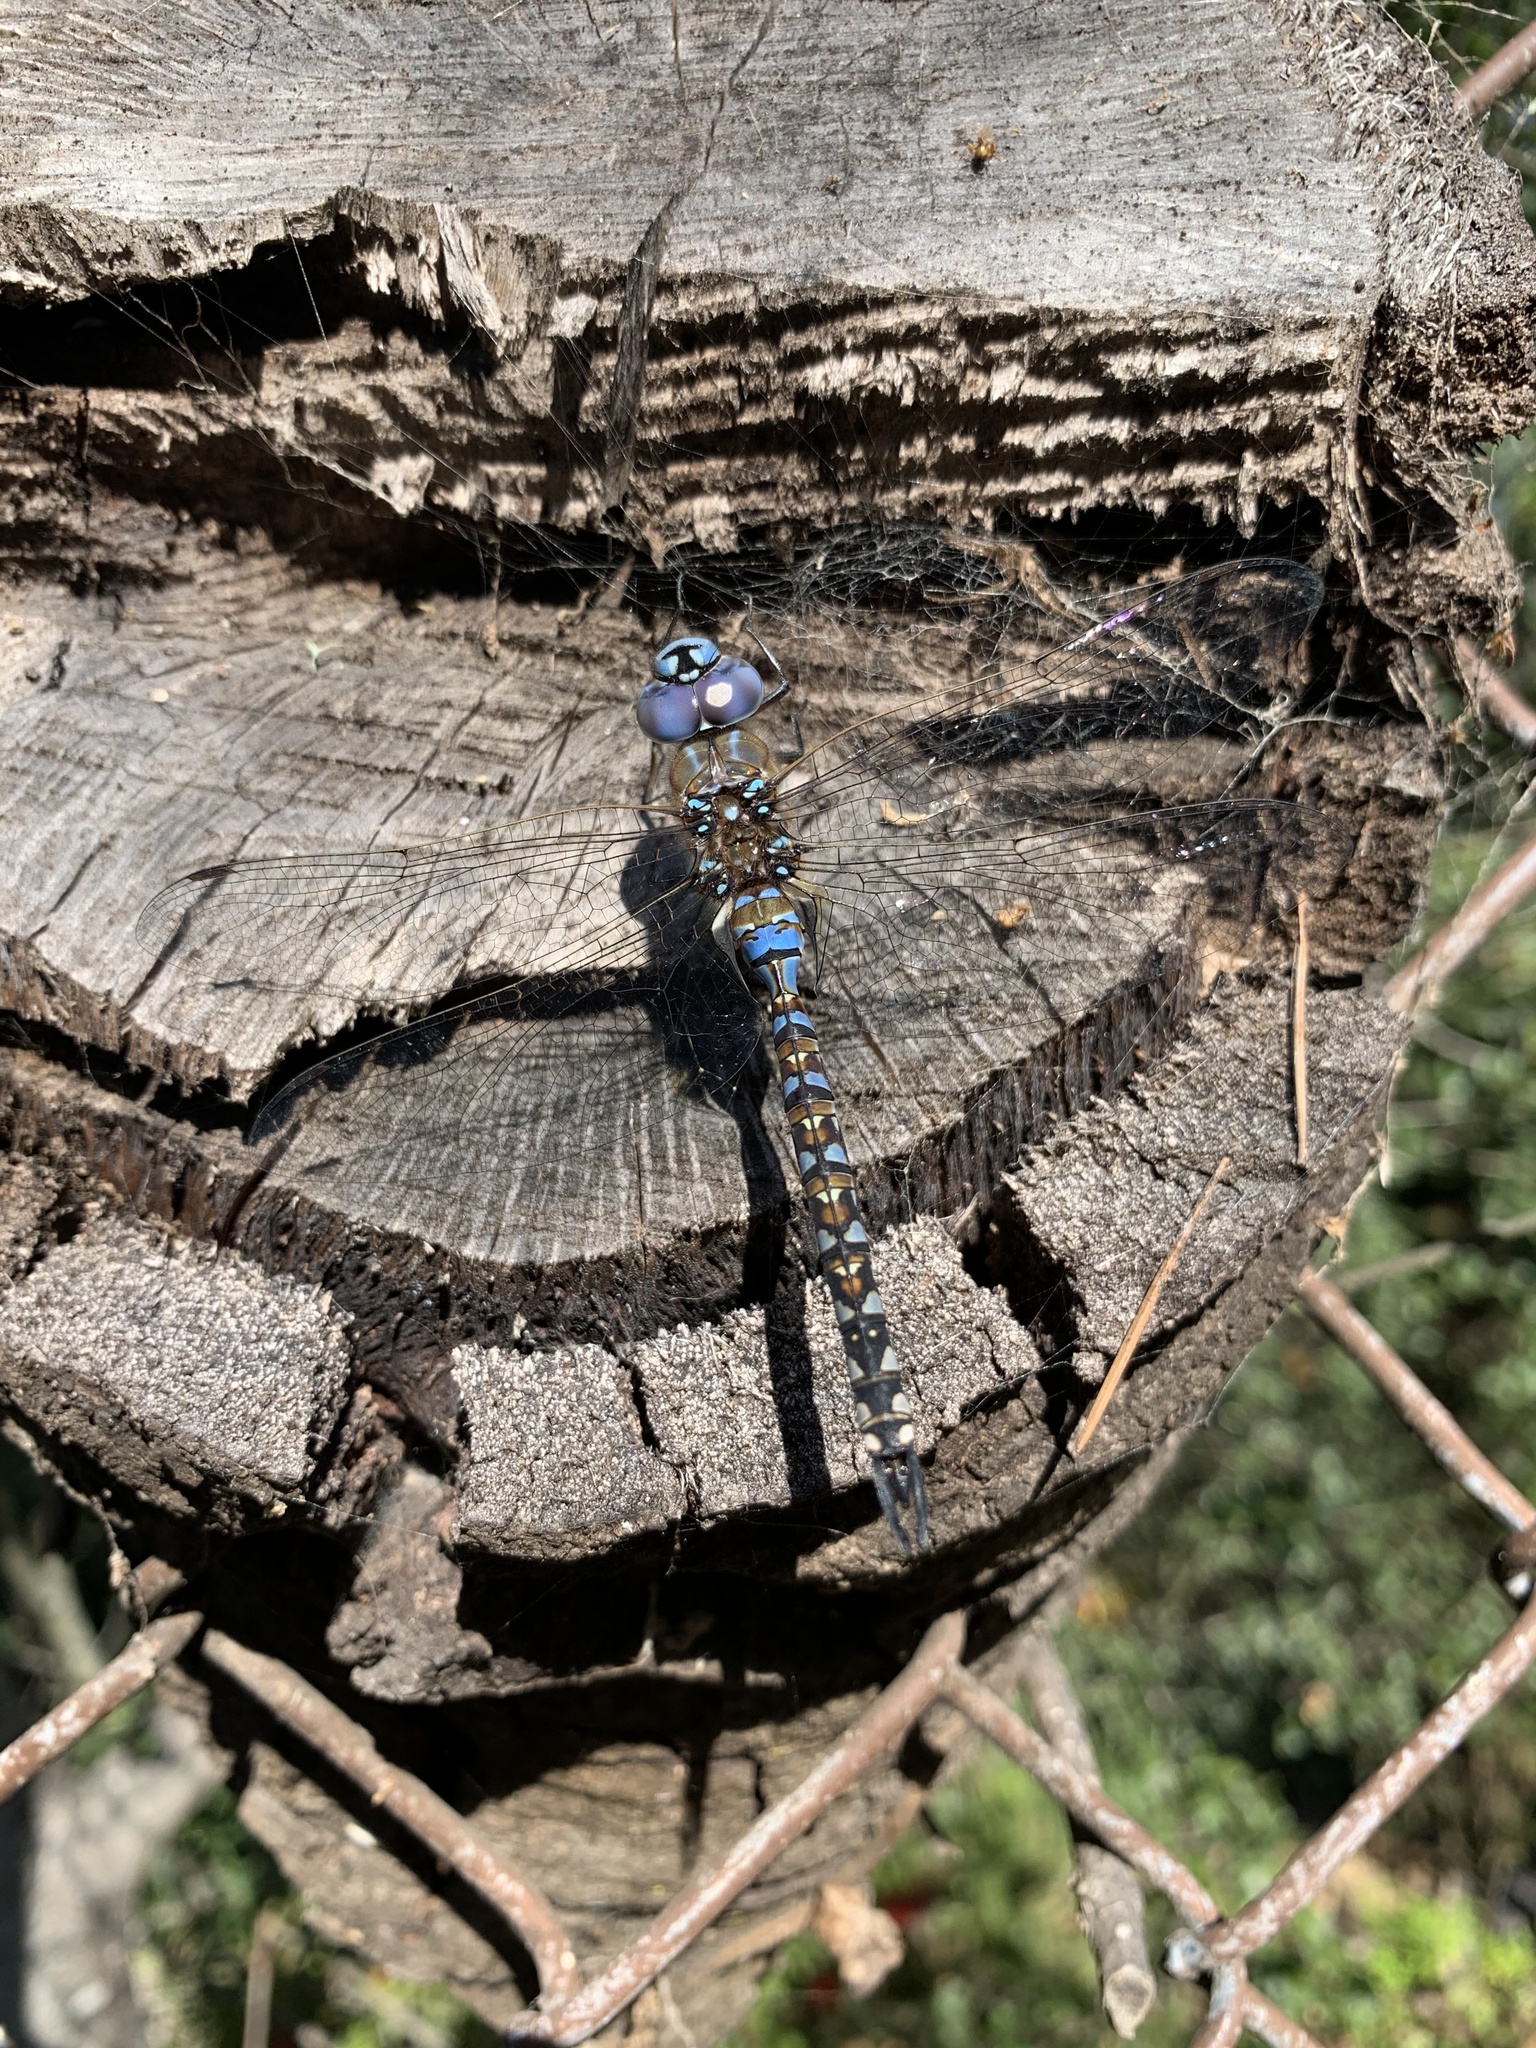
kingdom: Animalia
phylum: Arthropoda
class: Insecta
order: Odonata
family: Aeshnidae
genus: Rhionaeschna
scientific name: Rhionaeschna multicolor
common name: Blue-eyed darner
